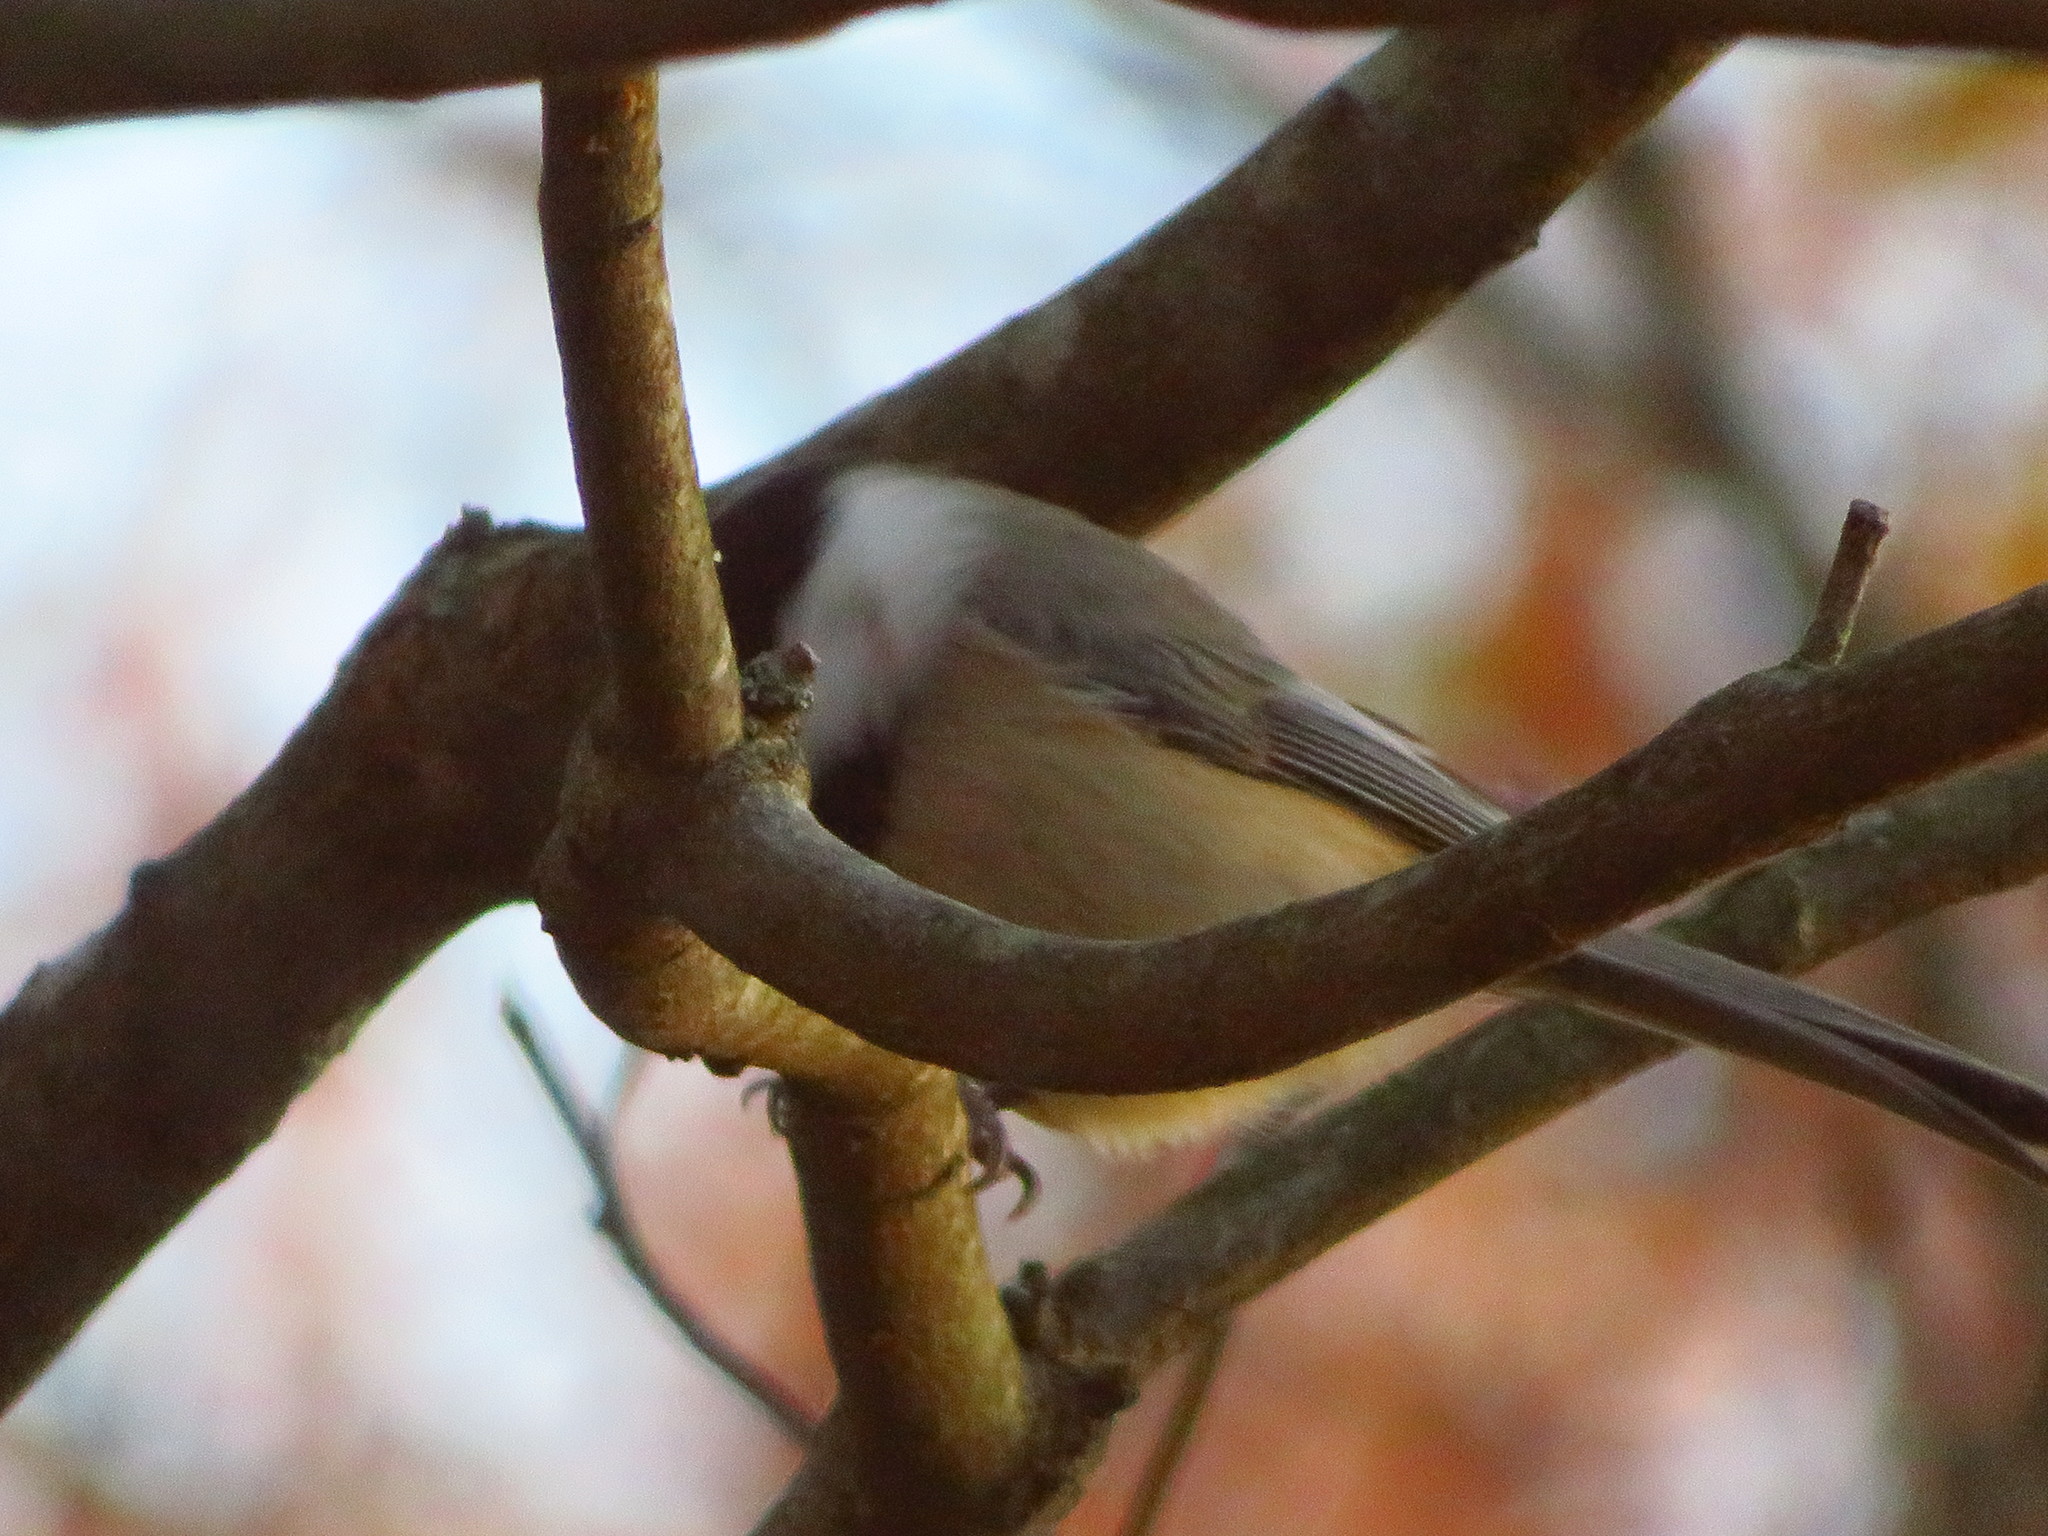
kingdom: Animalia
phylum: Chordata
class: Aves
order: Passeriformes
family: Paridae
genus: Poecile
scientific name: Poecile carolinensis
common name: Carolina chickadee
